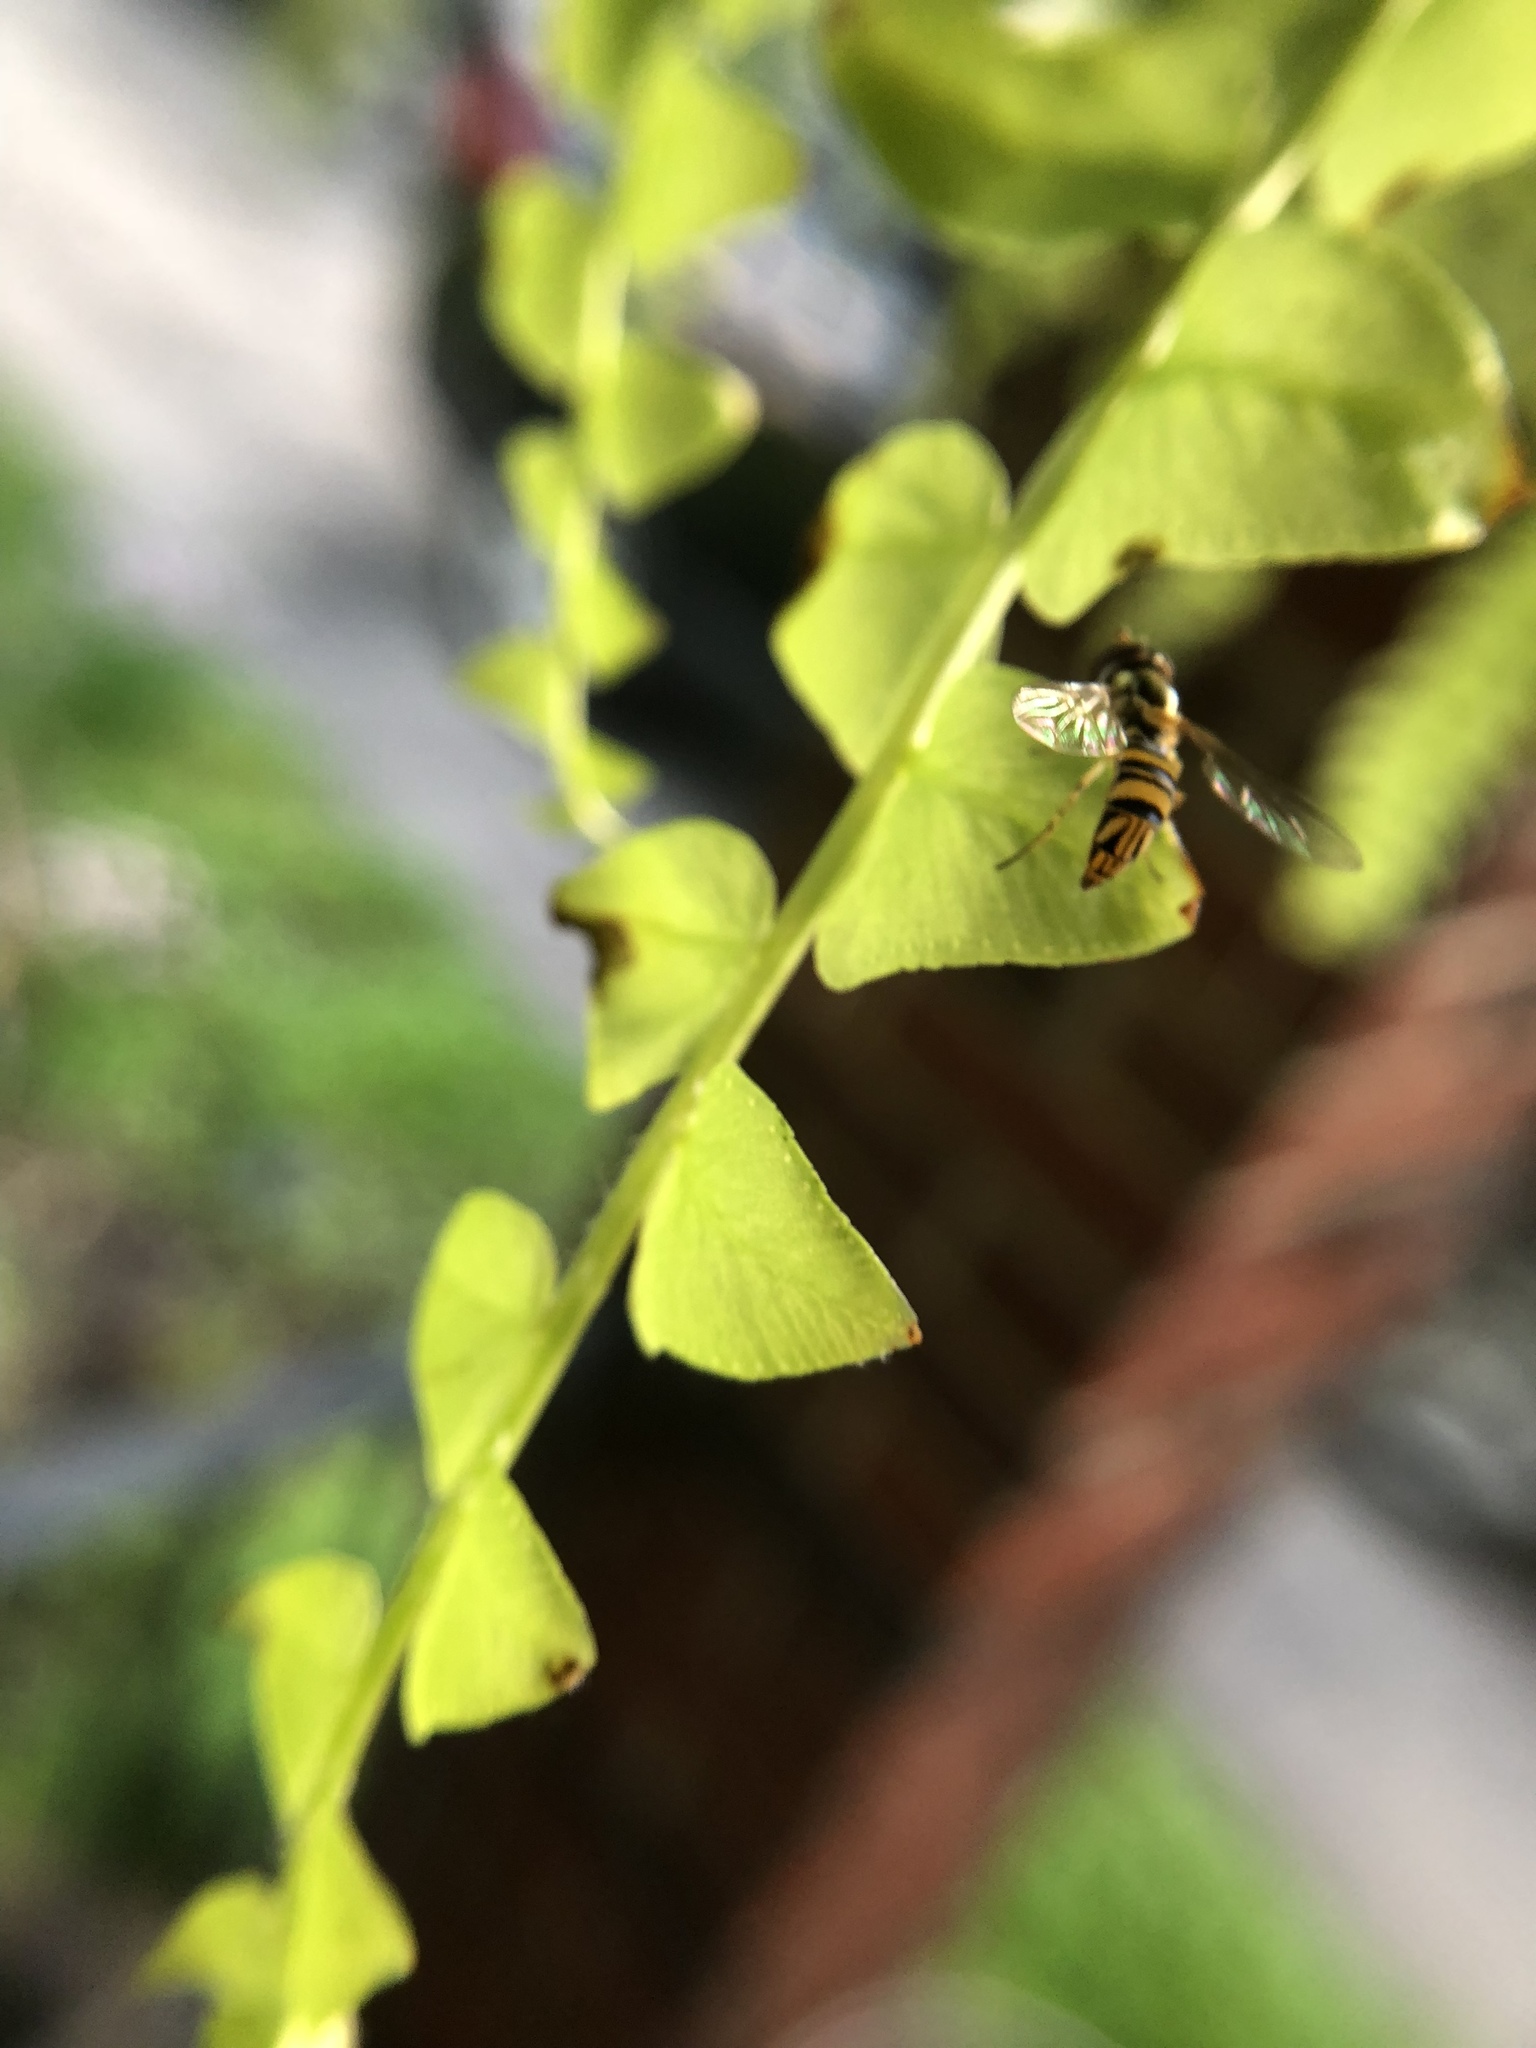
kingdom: Animalia
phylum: Arthropoda
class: Insecta
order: Diptera
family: Syrphidae
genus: Allograpta
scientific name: Allograpta obliqua
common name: Common oblique syrphid
